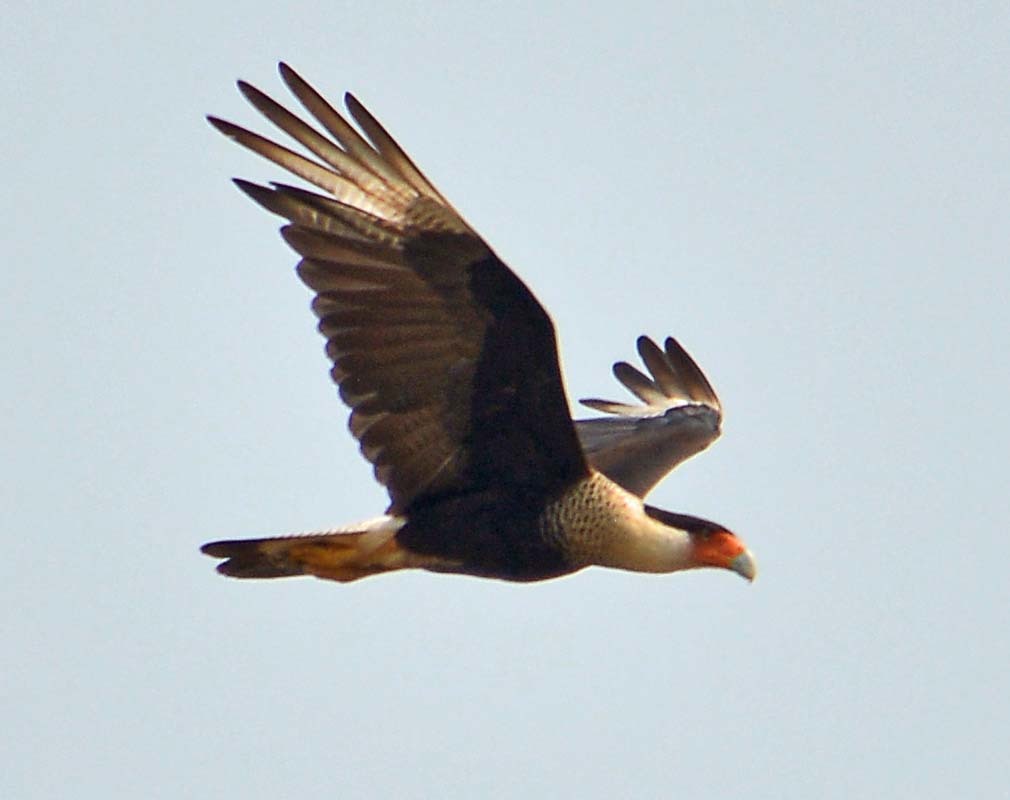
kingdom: Animalia
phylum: Chordata
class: Aves
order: Falconiformes
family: Falconidae
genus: Caracara
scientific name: Caracara plancus
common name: Southern caracara
